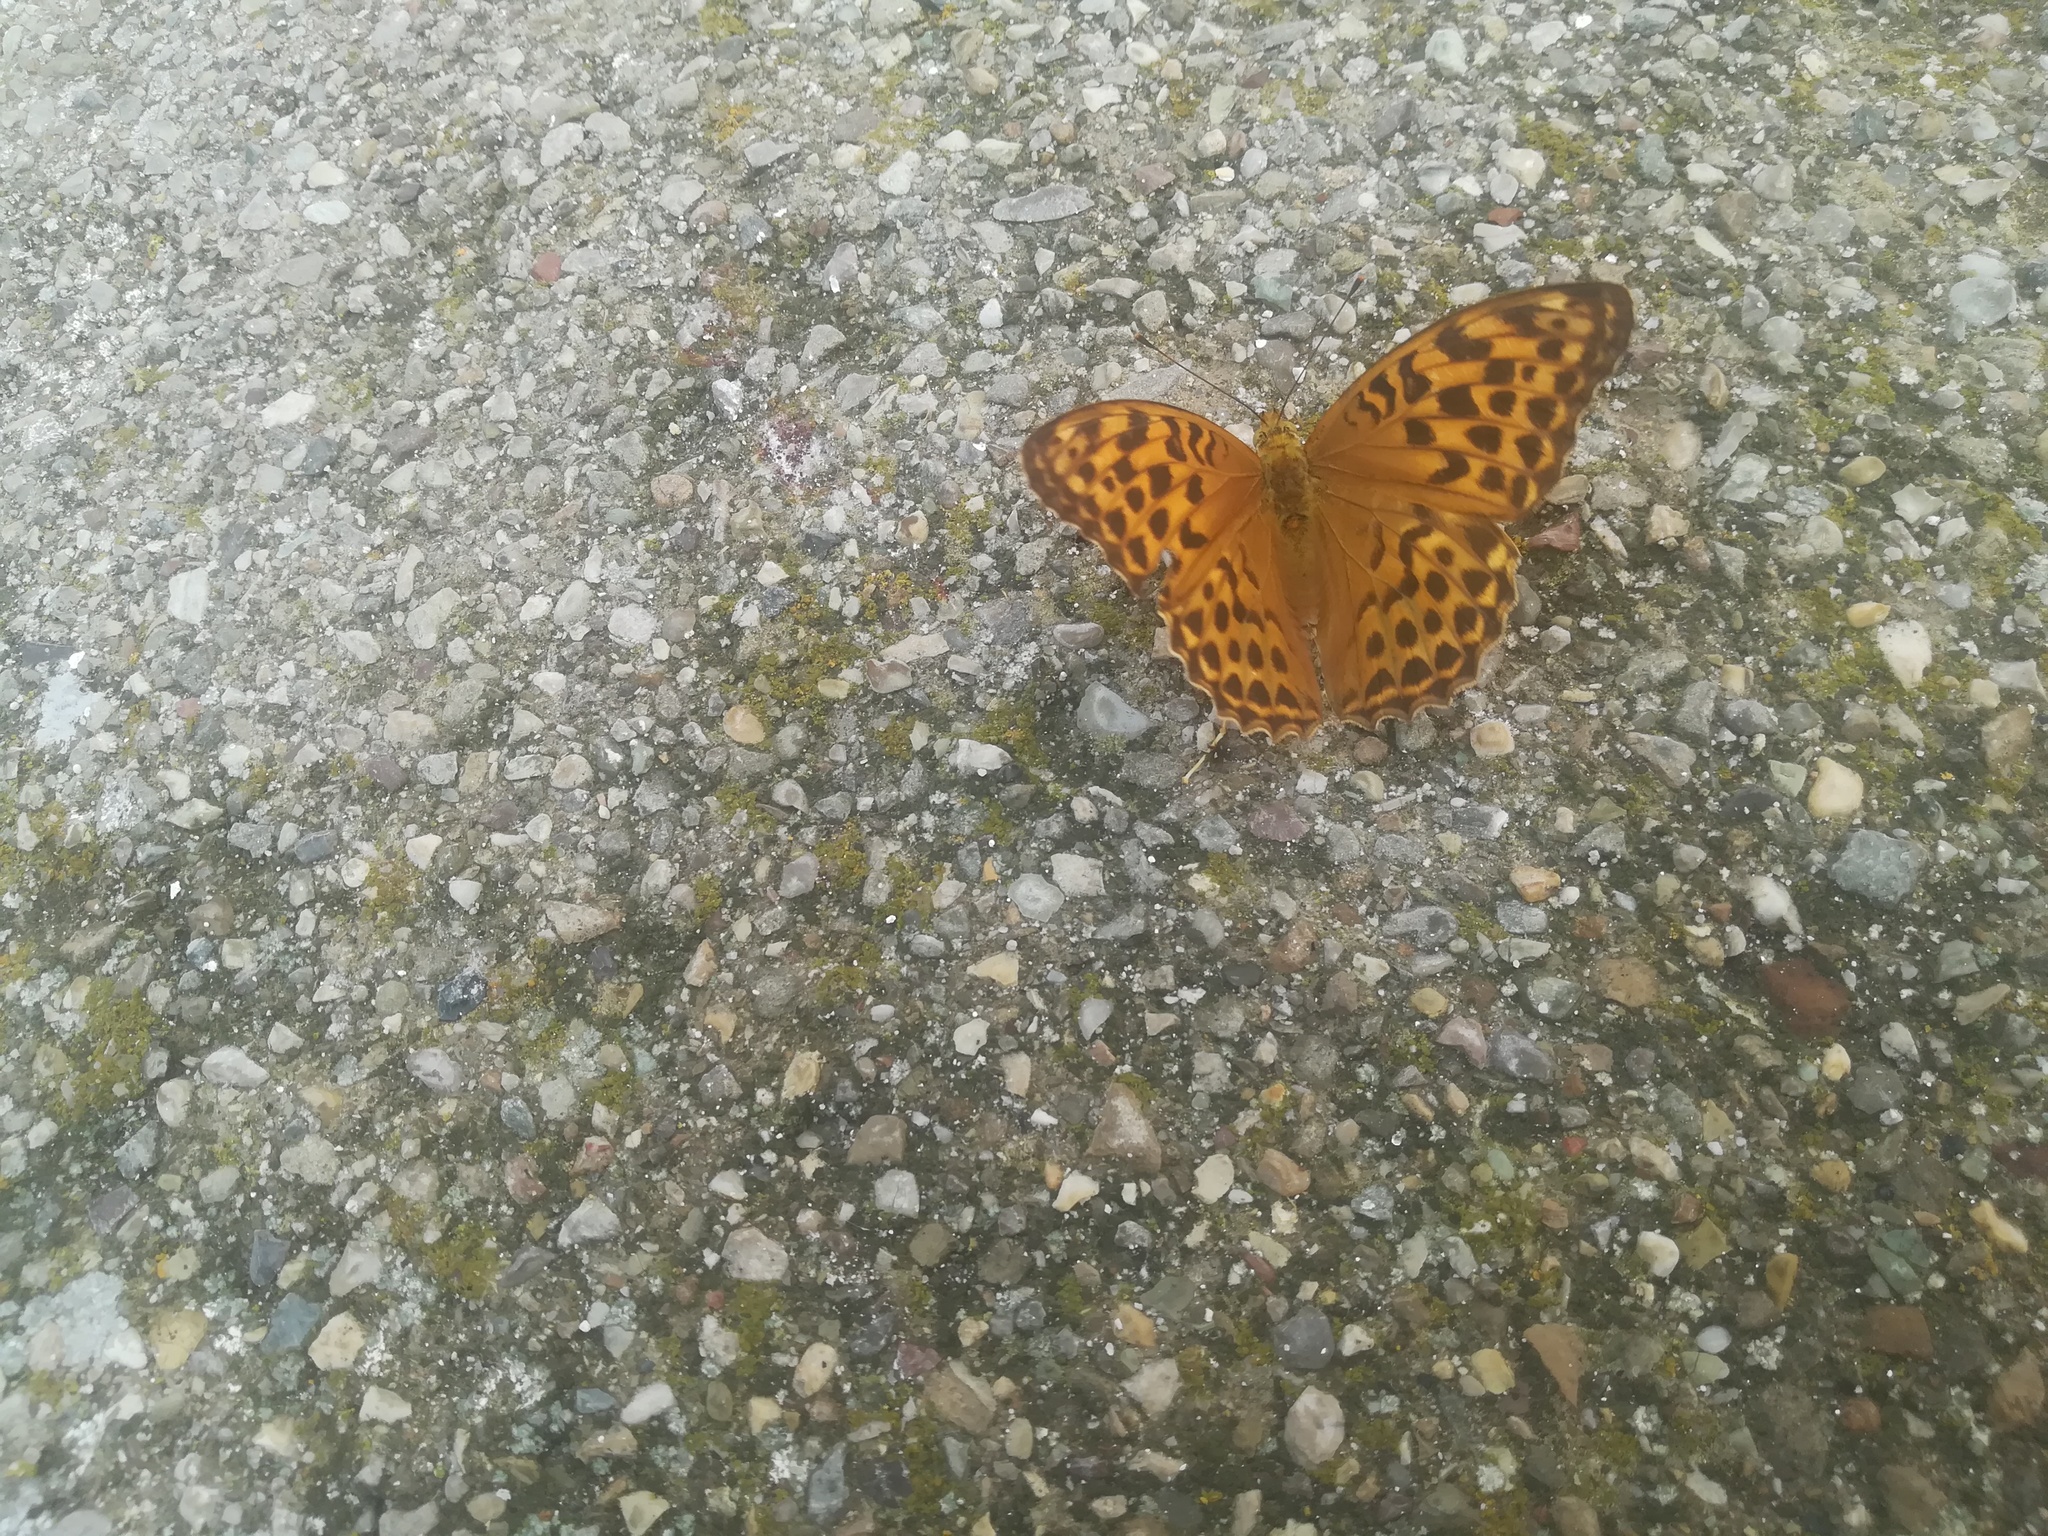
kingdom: Animalia
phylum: Arthropoda
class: Insecta
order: Lepidoptera
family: Nymphalidae
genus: Argynnis
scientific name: Argynnis paphia
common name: Silver-washed fritillary
